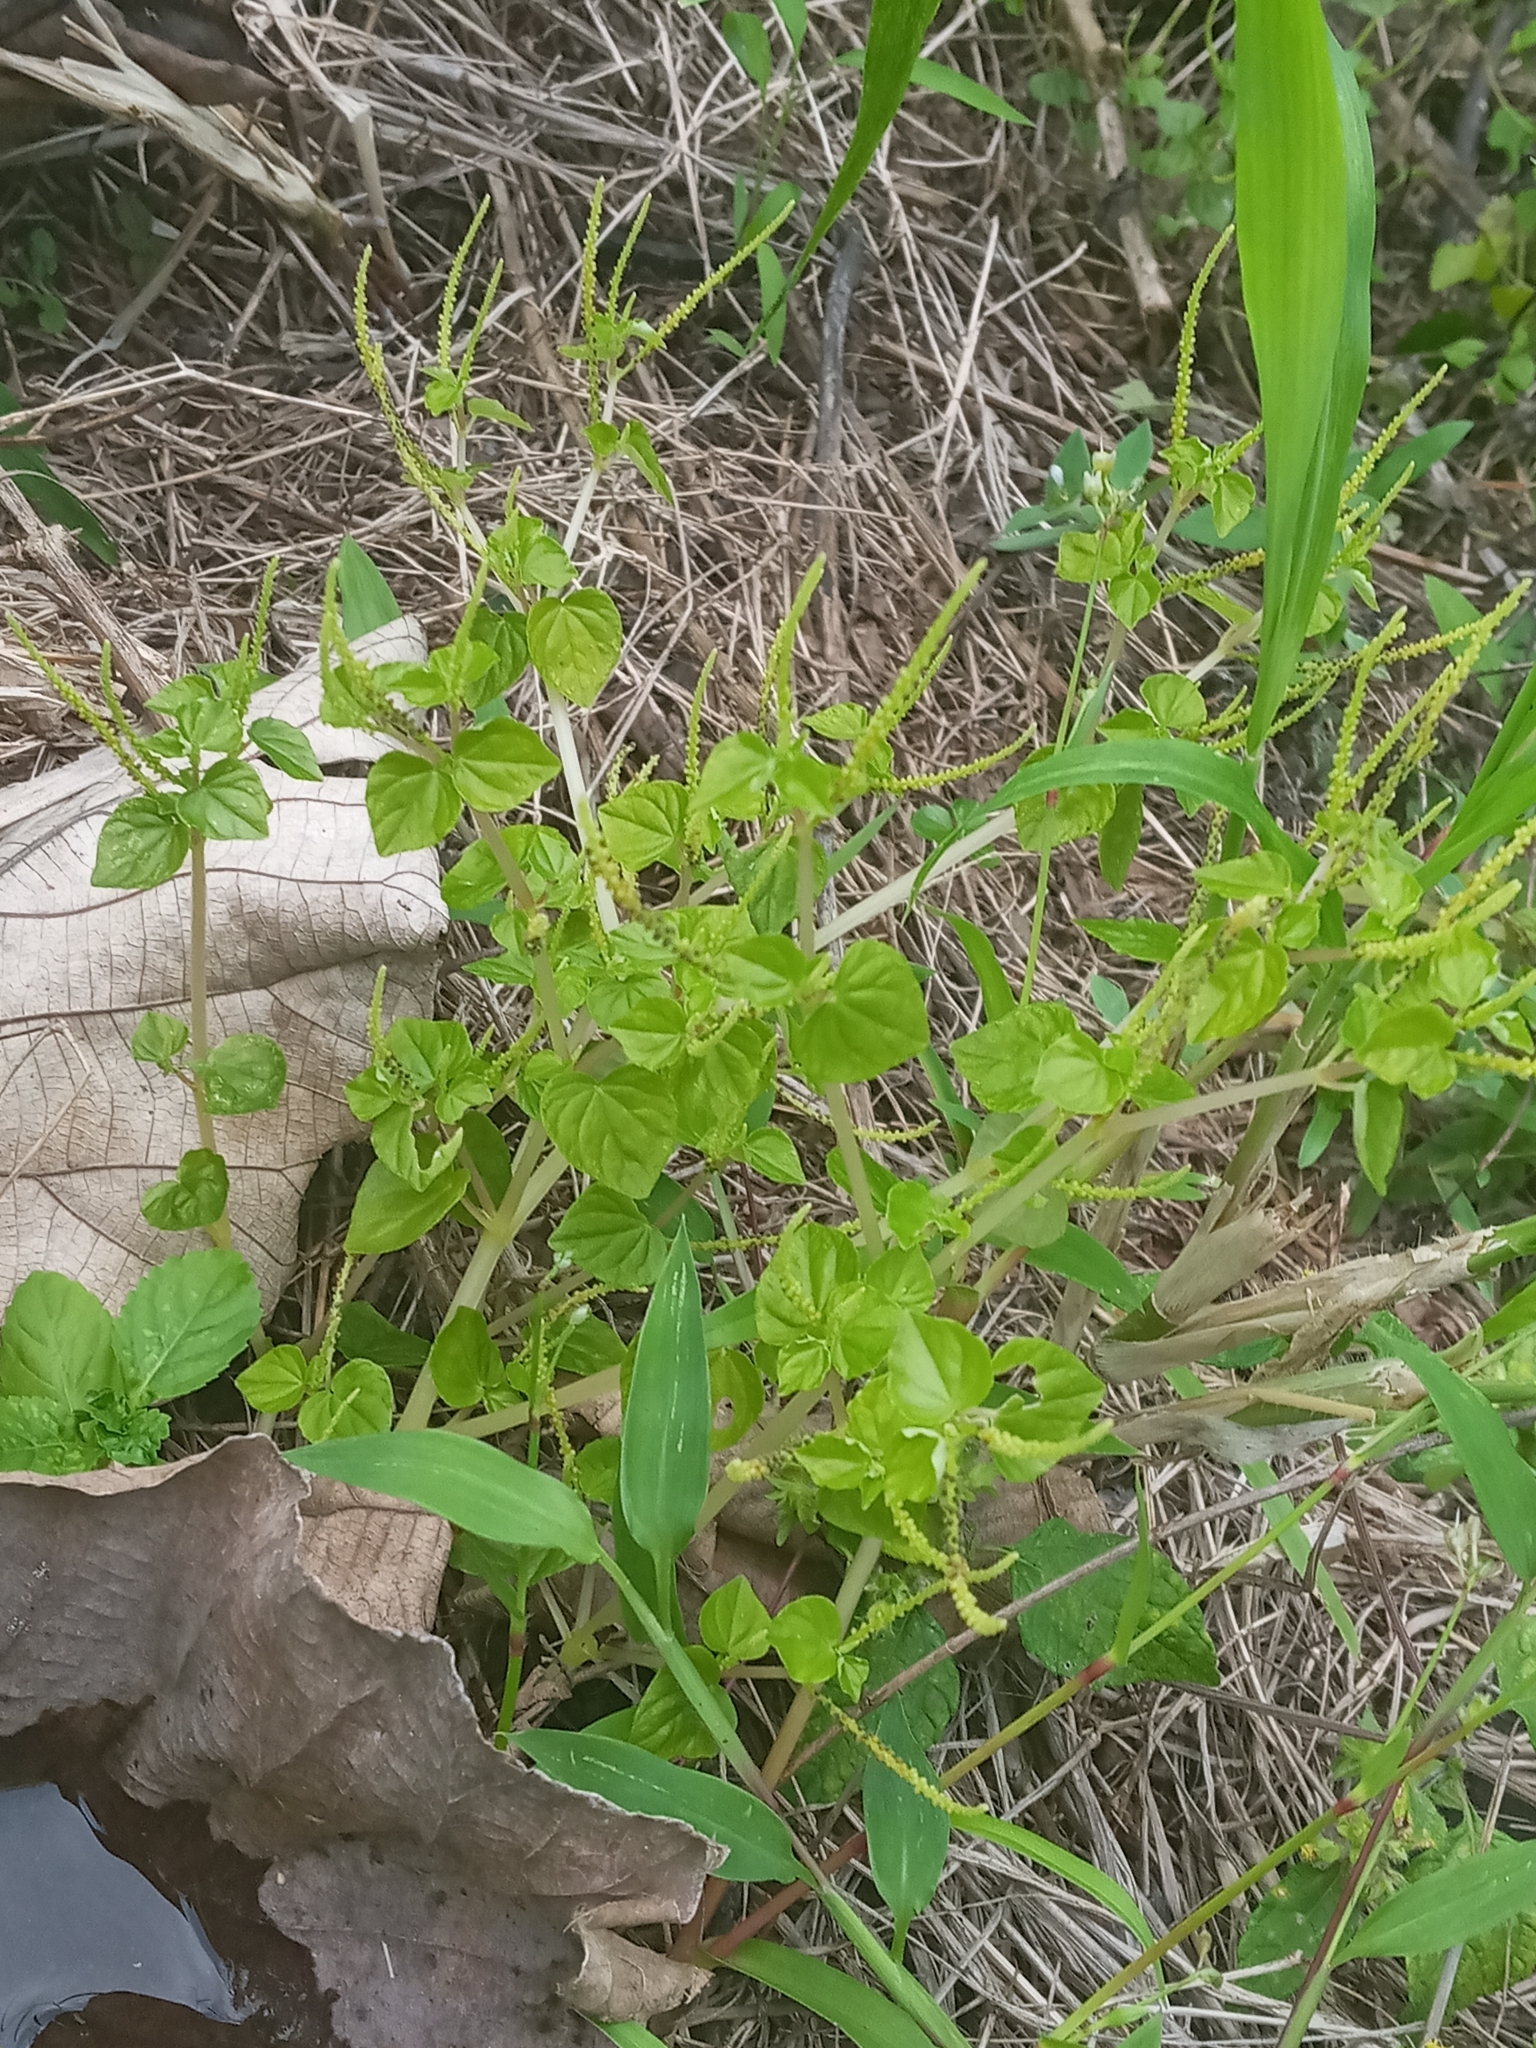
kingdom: Plantae
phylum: Tracheophyta
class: Magnoliopsida
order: Piperales
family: Piperaceae
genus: Peperomia
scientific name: Peperomia pellucida
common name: Man to man
